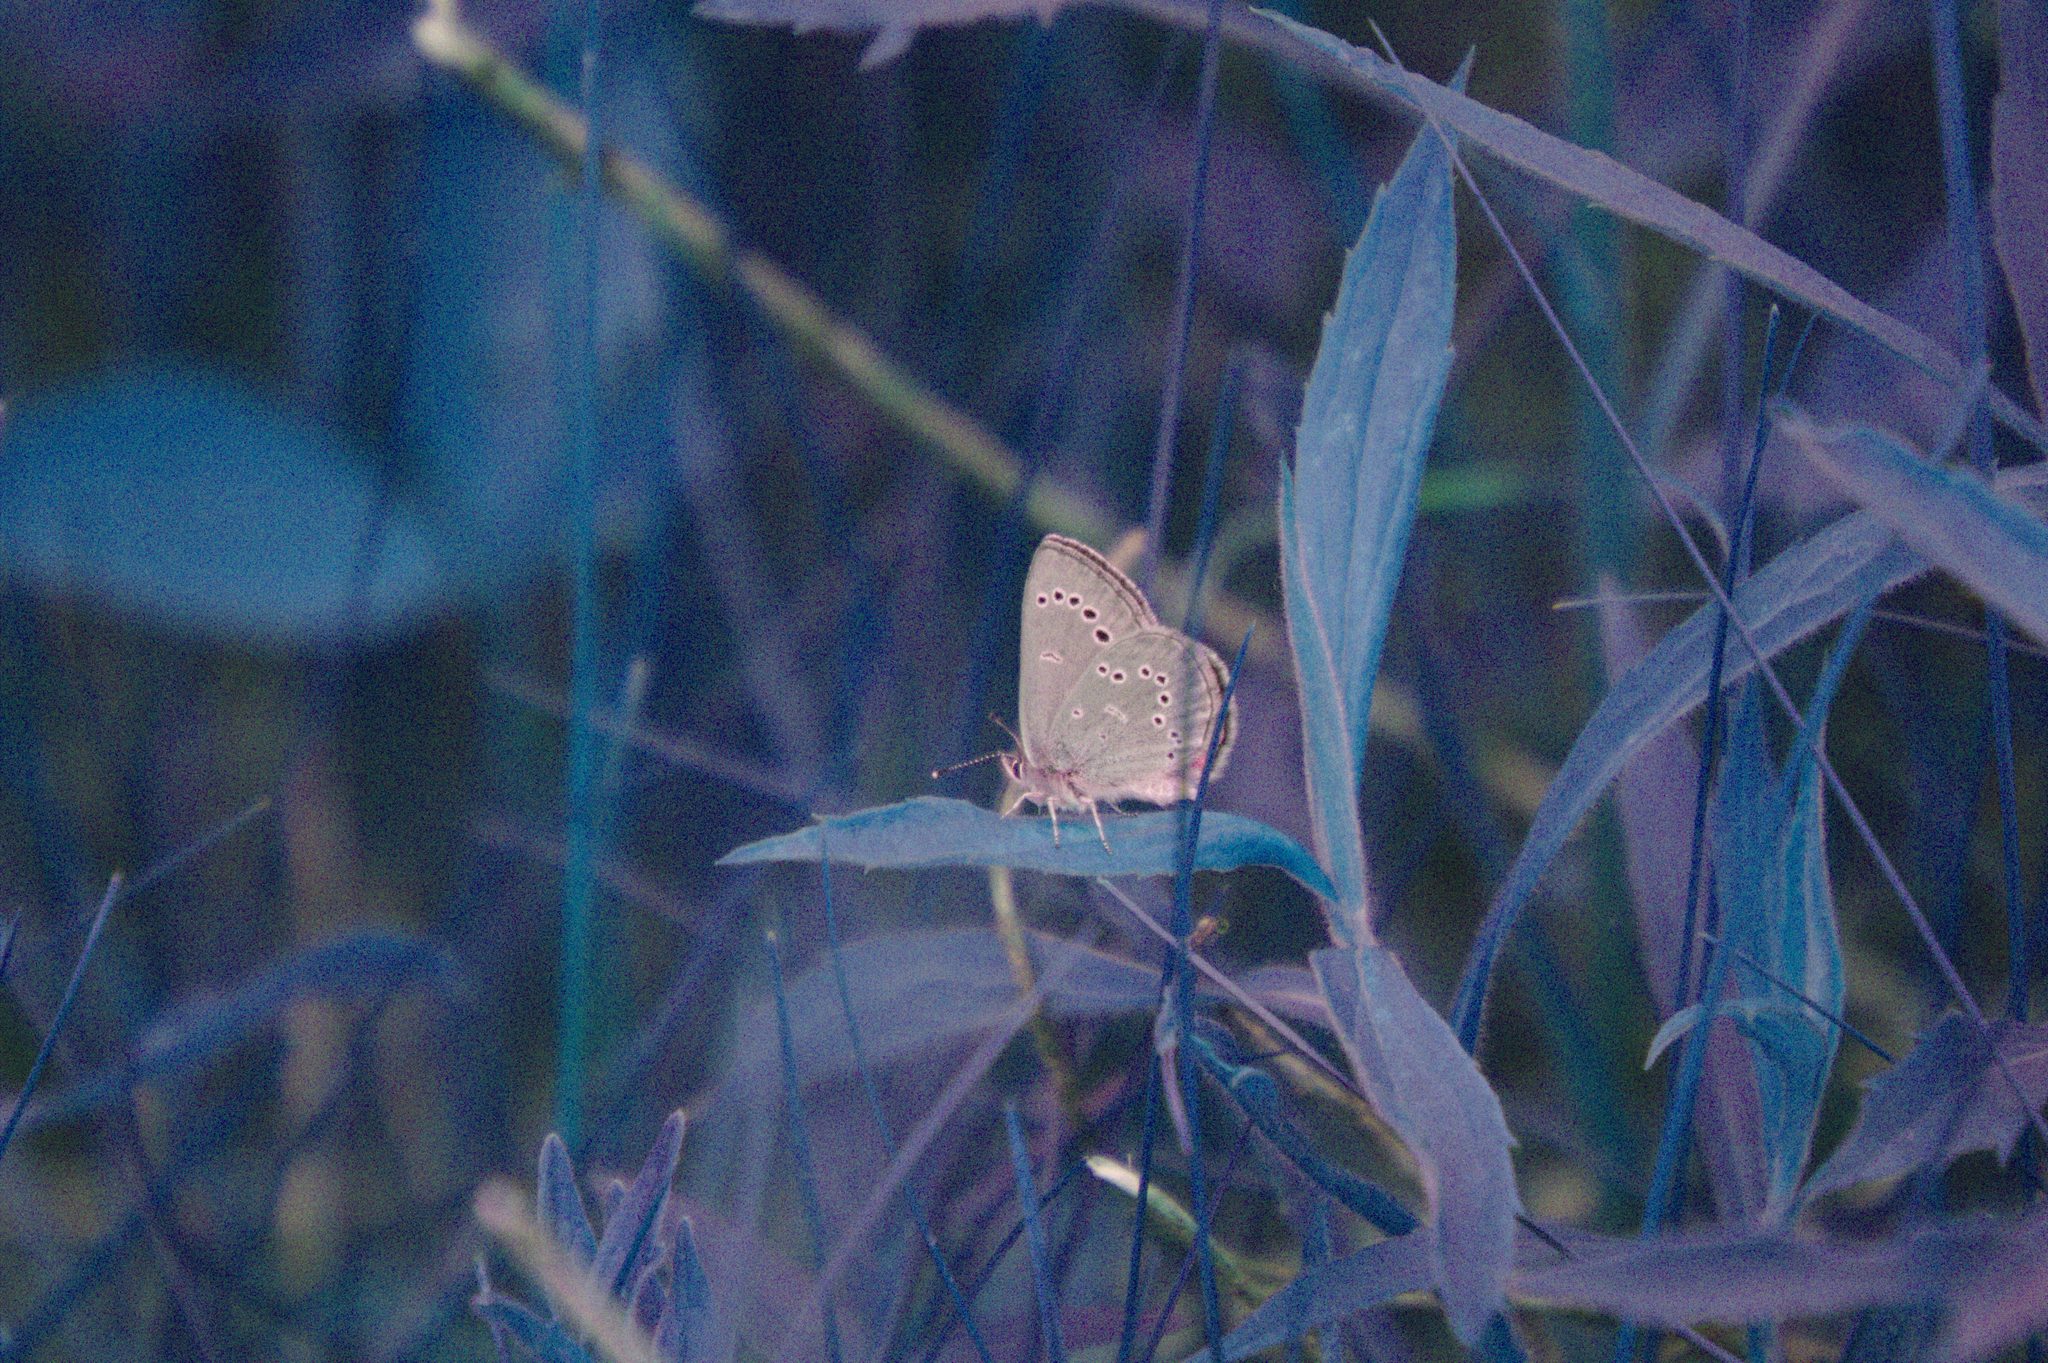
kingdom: Animalia
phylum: Arthropoda
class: Insecta
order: Lepidoptera
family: Lycaenidae
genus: Glaucopsyche
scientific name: Glaucopsyche lygdamus
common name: Silvery blue
